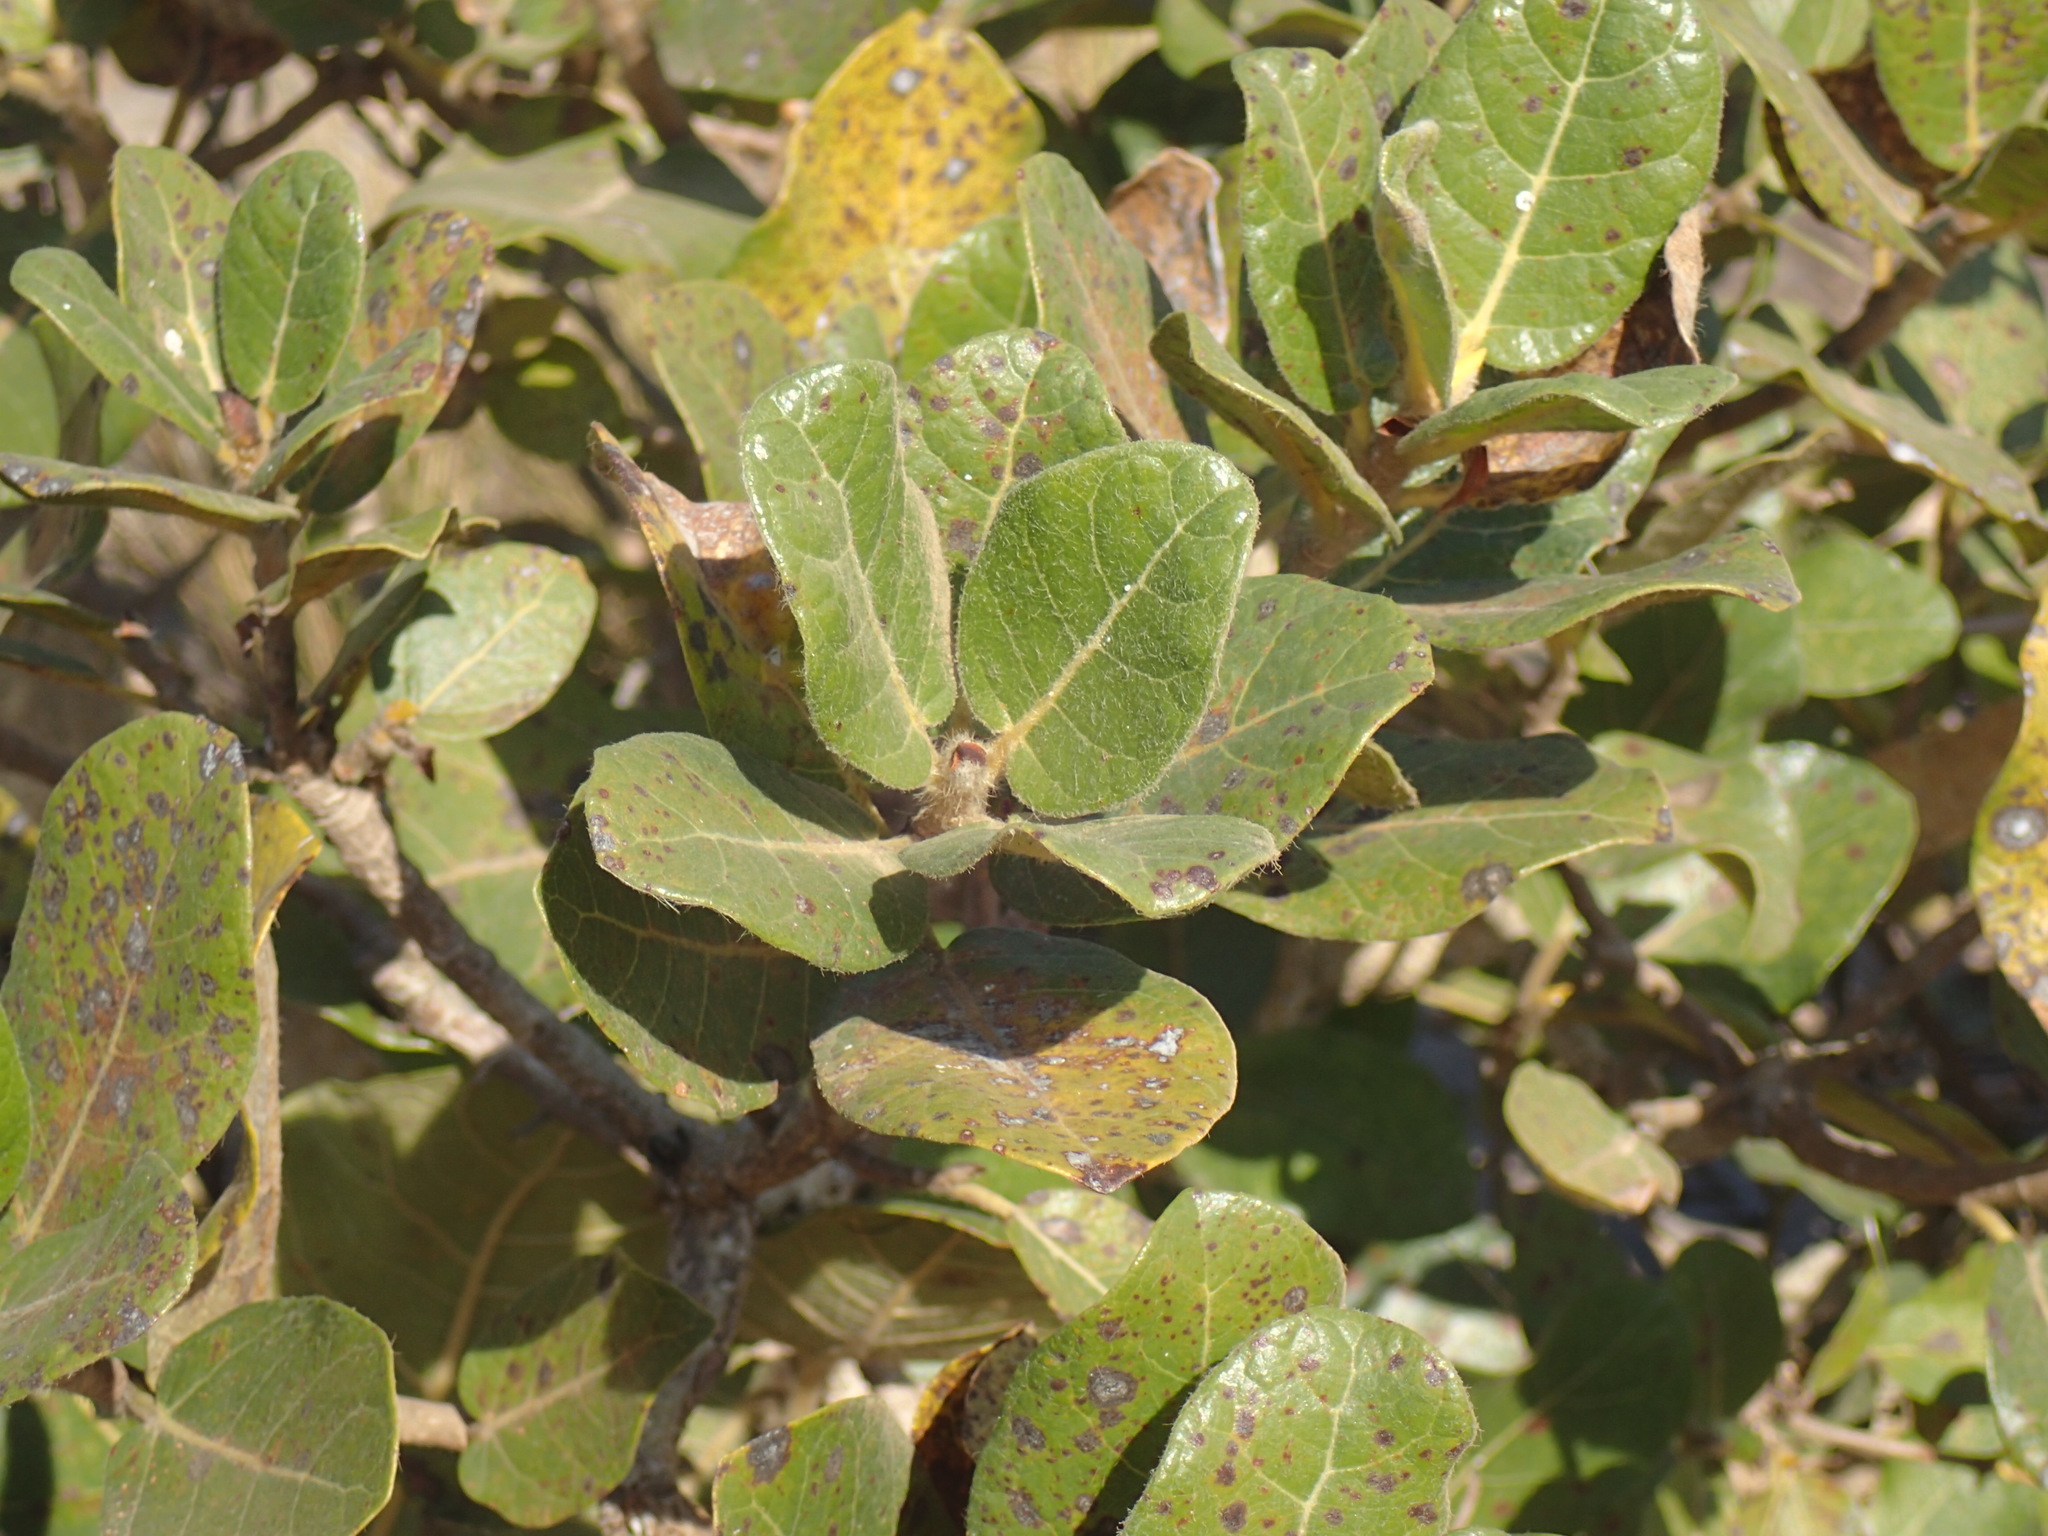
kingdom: Plantae
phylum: Tracheophyta
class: Magnoliopsida
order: Rosales
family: Moraceae
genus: Ficus
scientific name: Ficus glumosa
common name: Hairy rock fig
